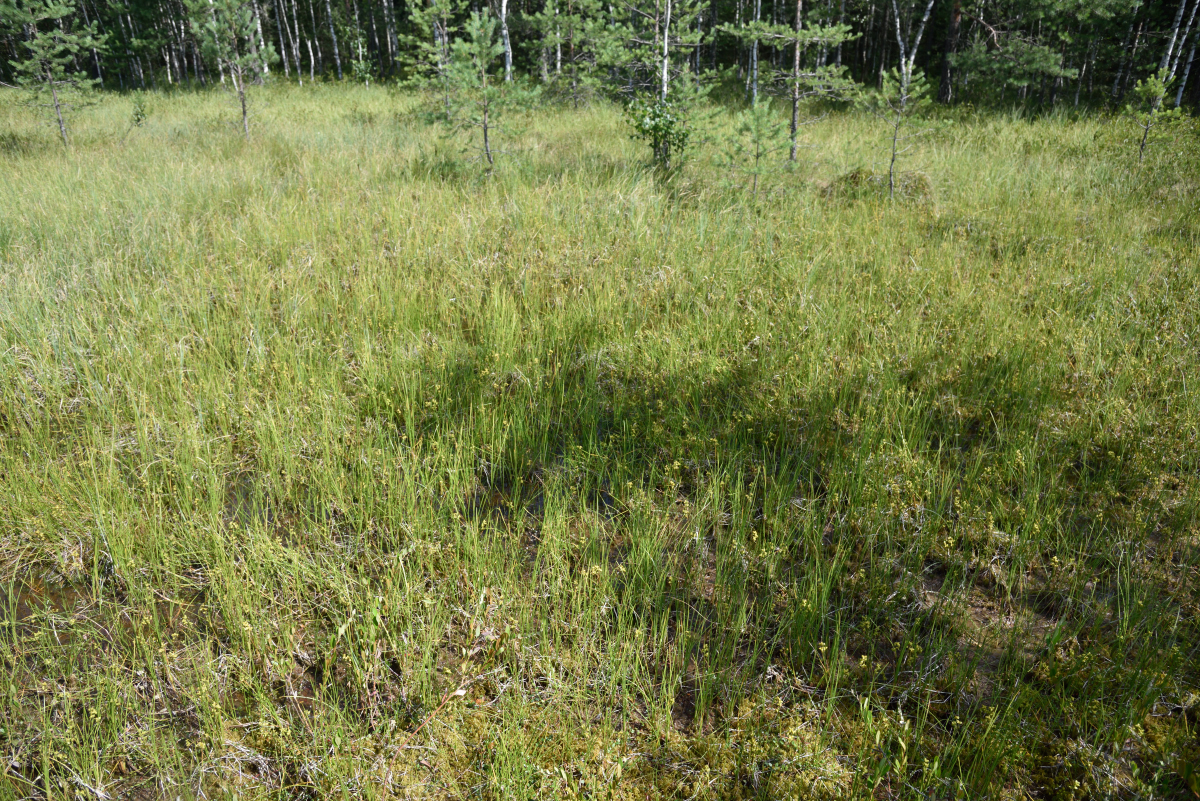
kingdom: Plantae
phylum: Tracheophyta
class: Liliopsida
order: Alismatales
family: Scheuchzeriaceae
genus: Scheuchzeria
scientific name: Scheuchzeria palustris
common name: Rannoch-rush
